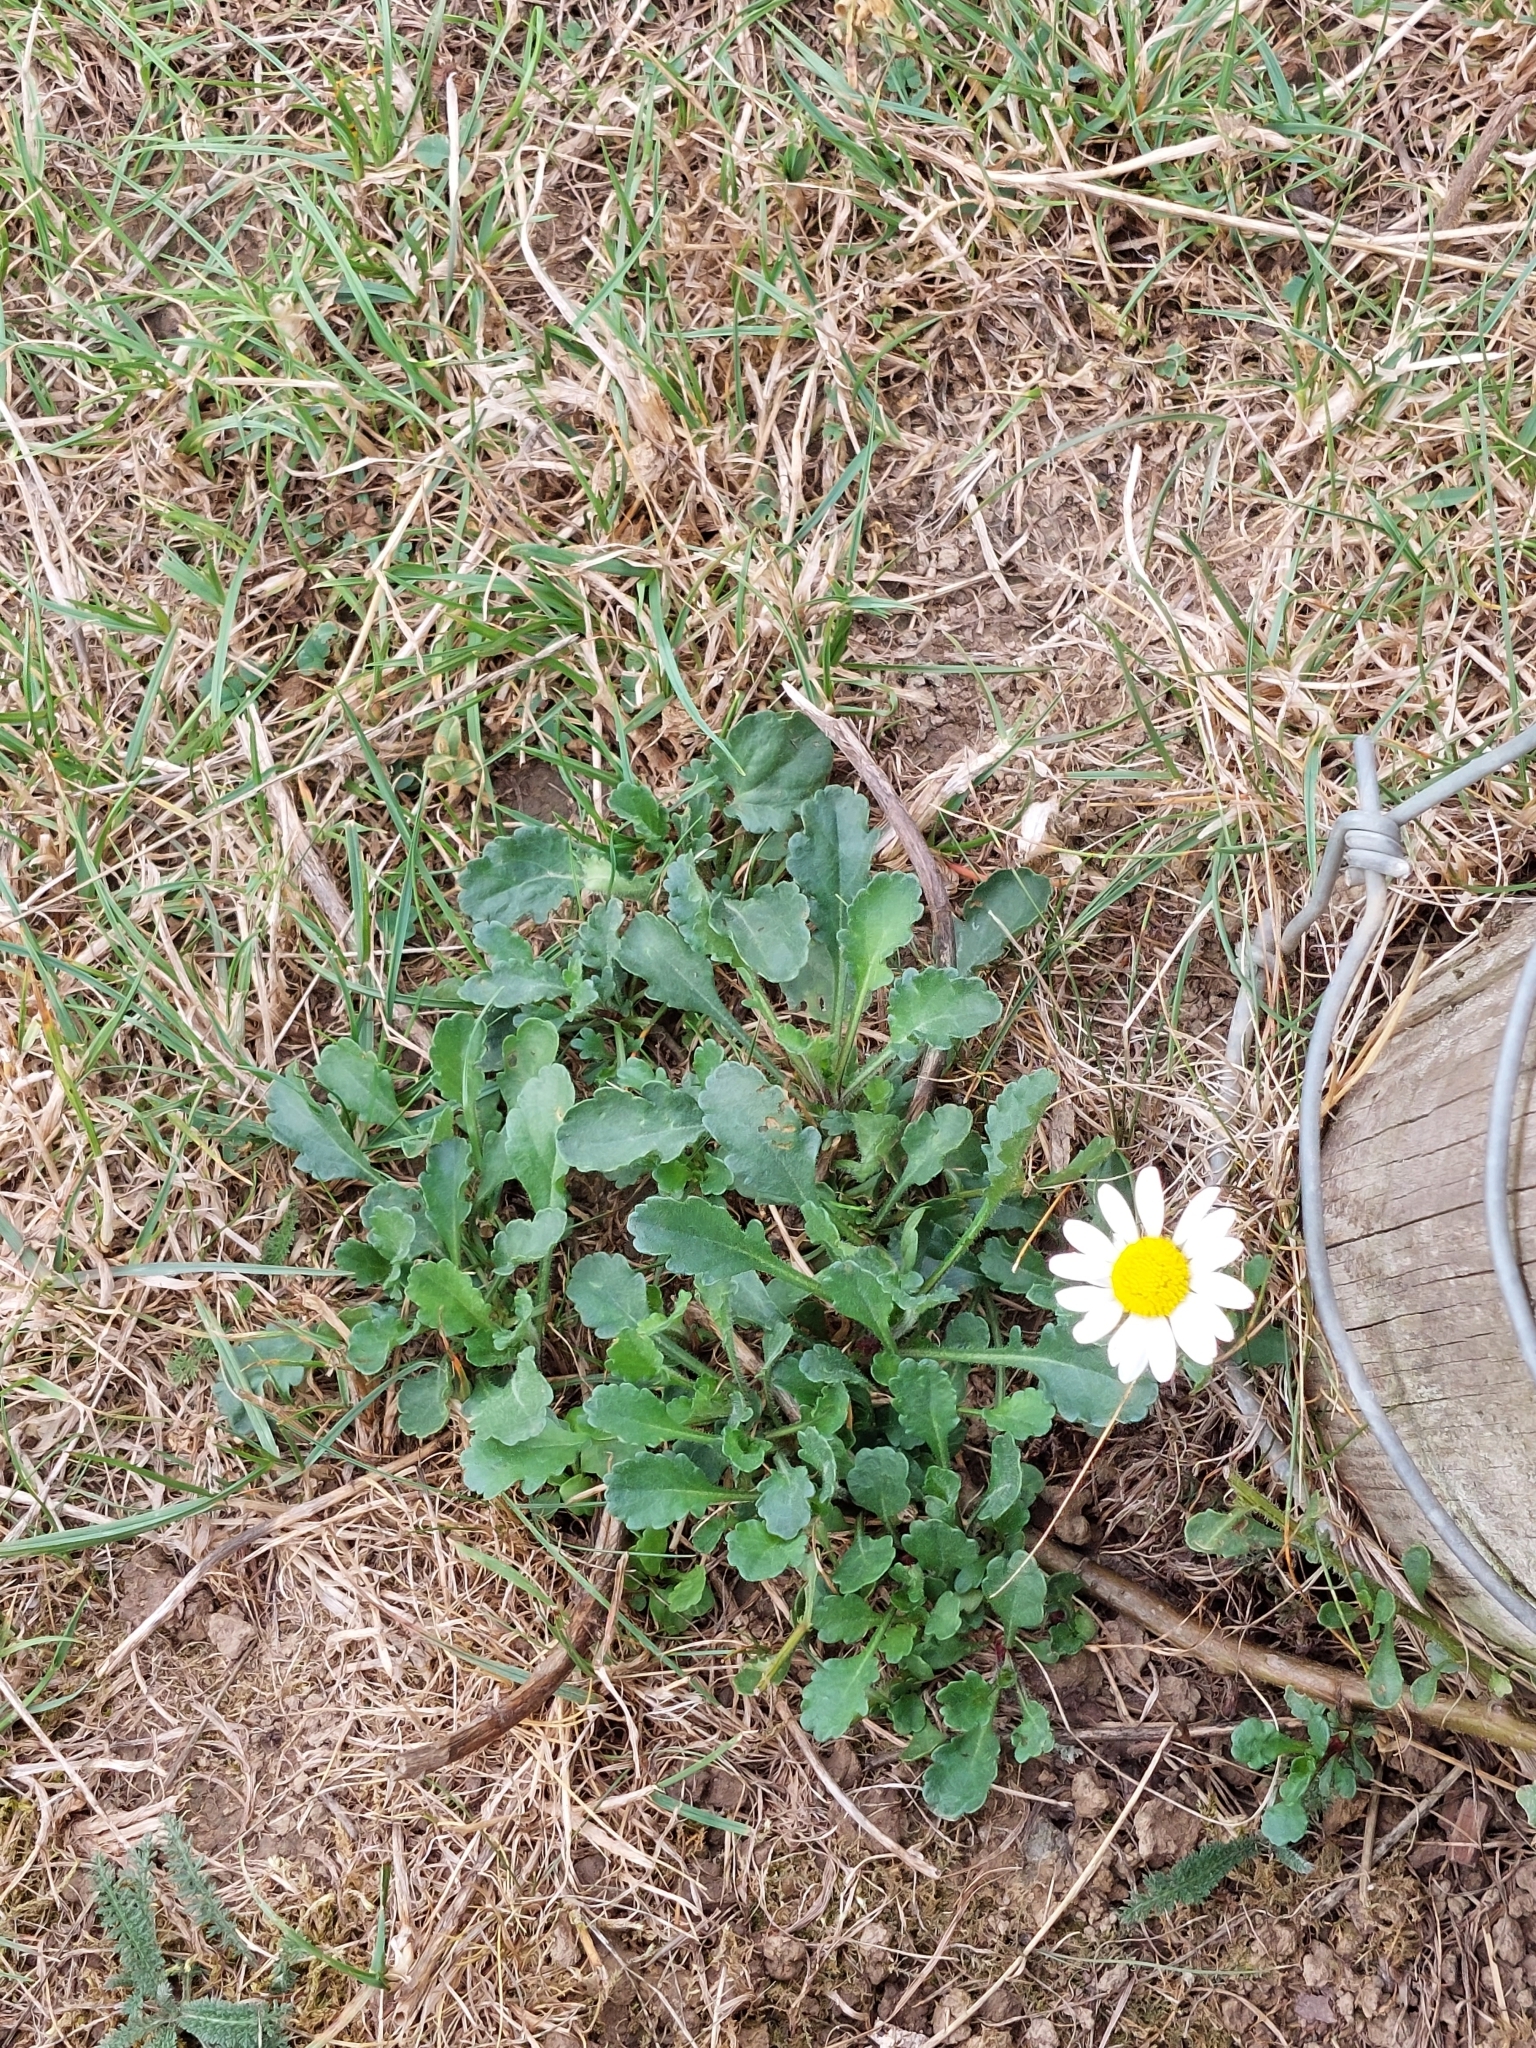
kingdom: Plantae
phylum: Tracheophyta
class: Magnoliopsida
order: Asterales
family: Asteraceae
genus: Leucanthemum
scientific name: Leucanthemum vulgare
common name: Oxeye daisy
